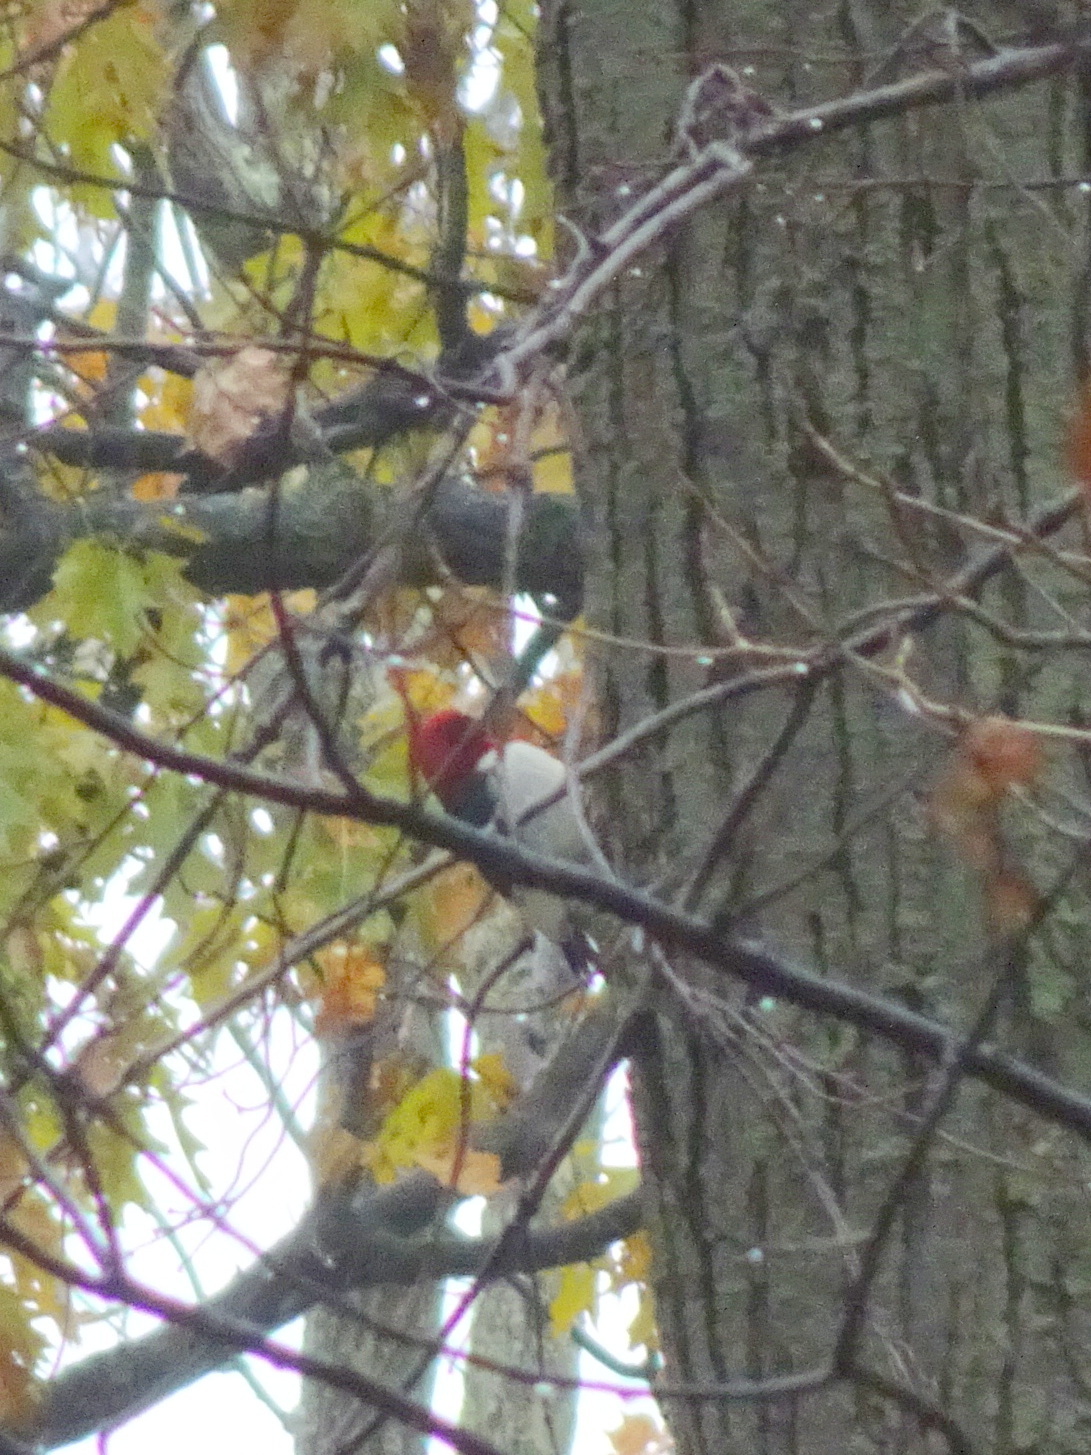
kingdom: Animalia
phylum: Chordata
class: Aves
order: Piciformes
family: Picidae
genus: Melanerpes
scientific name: Melanerpes erythrocephalus
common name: Red-headed woodpecker
